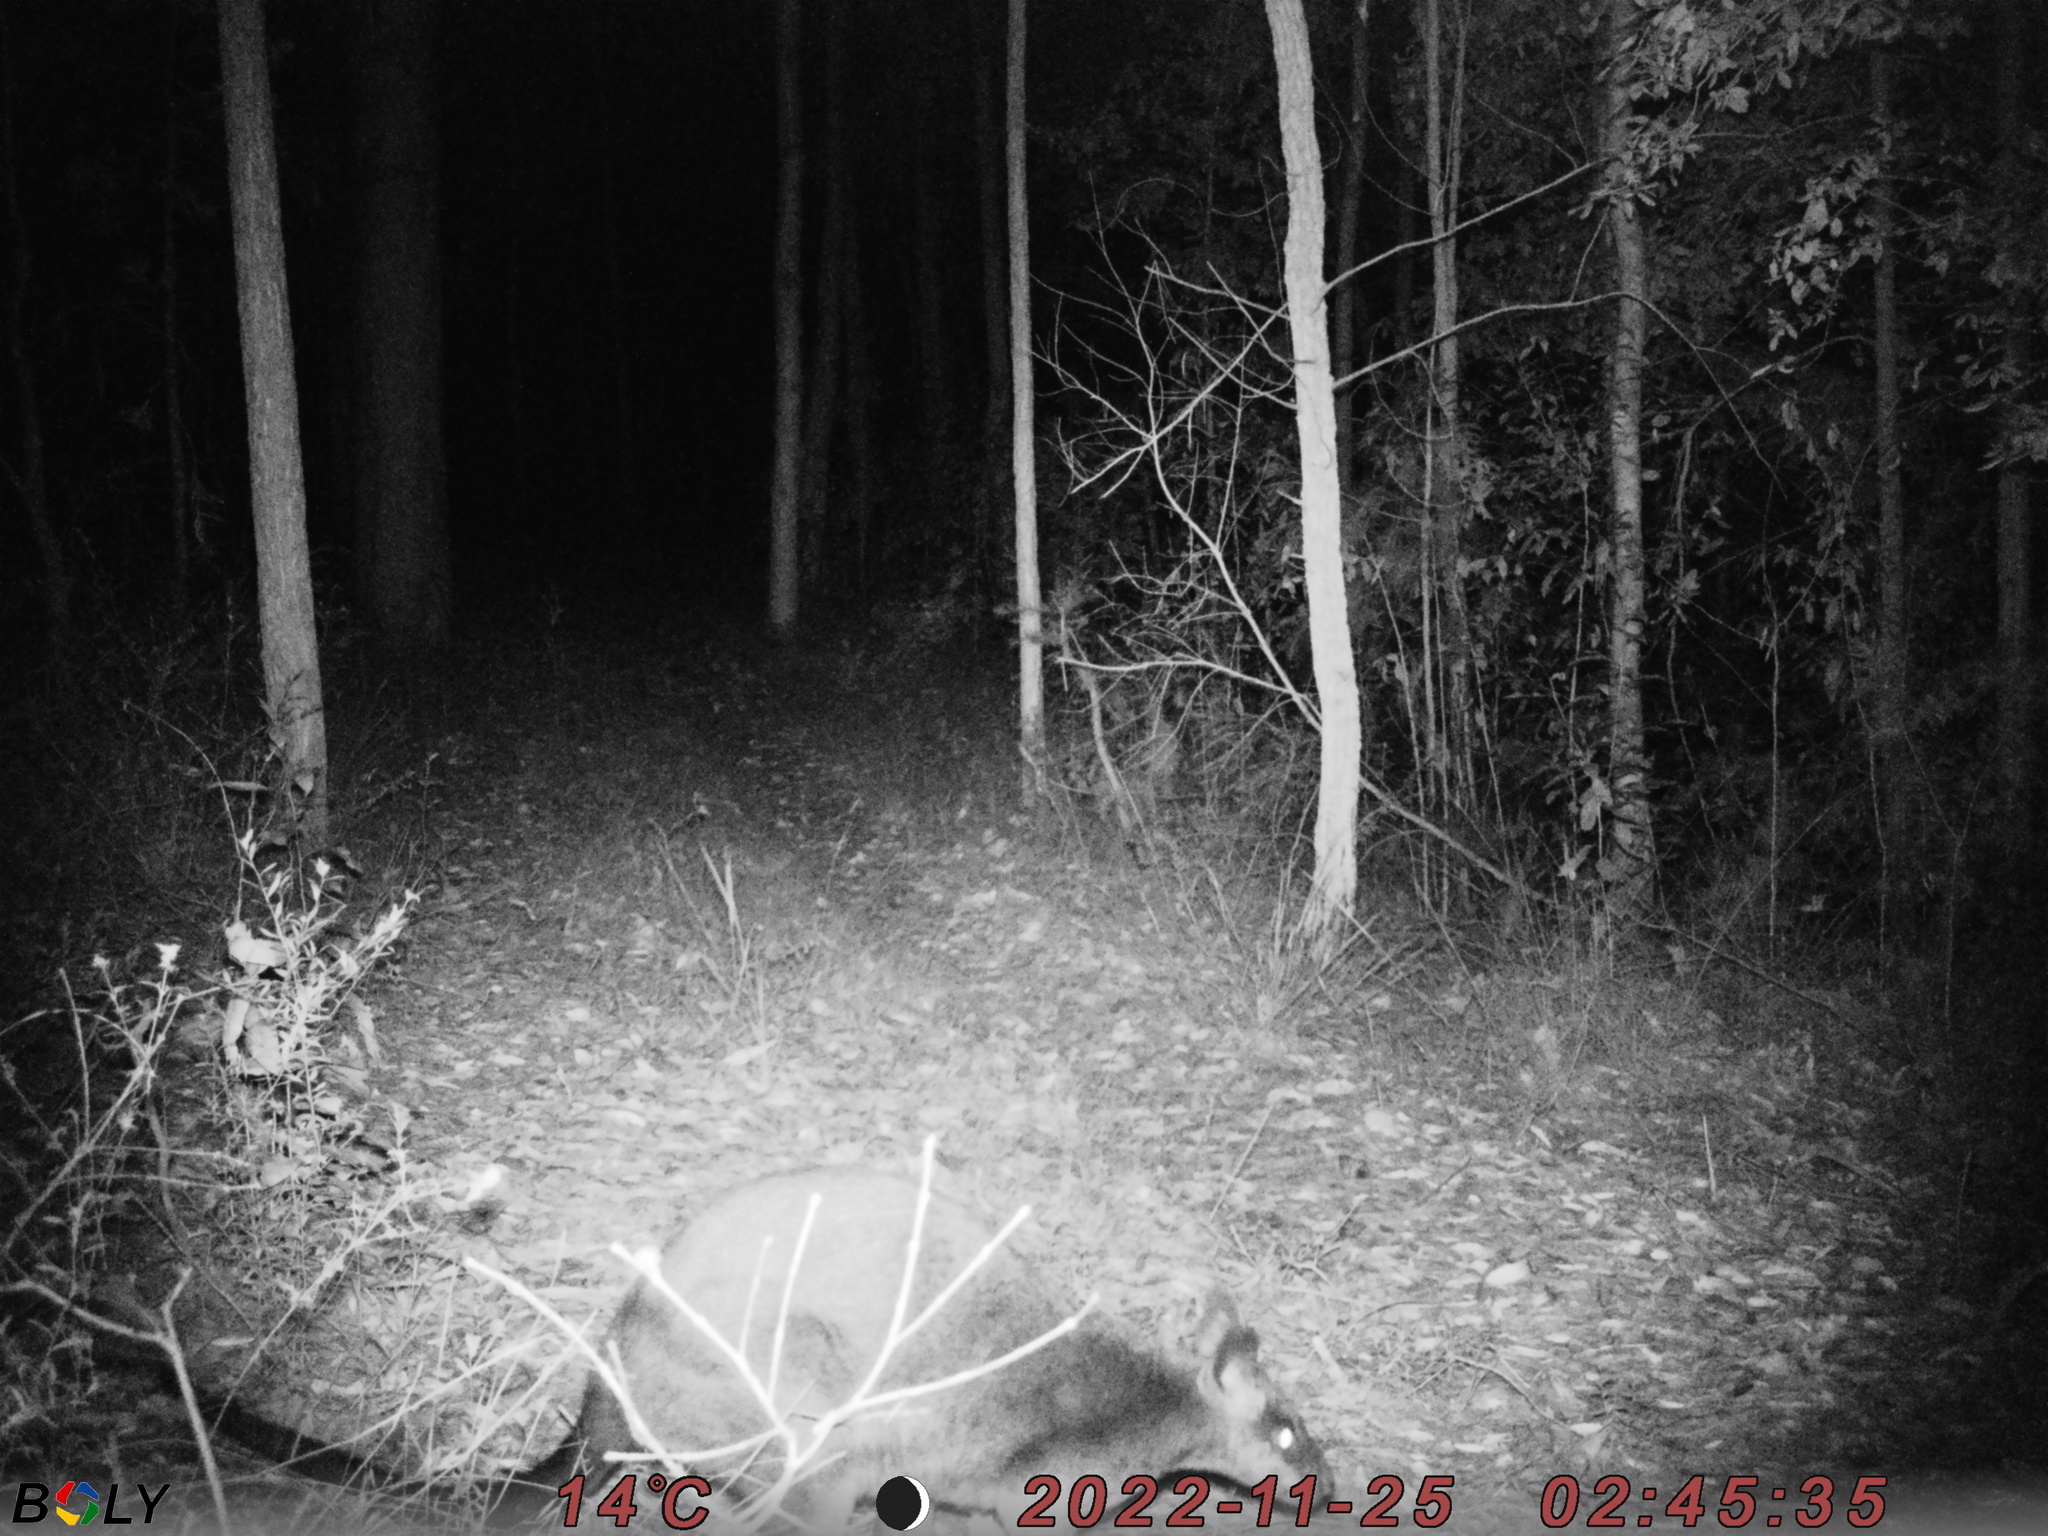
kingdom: Animalia
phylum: Chordata
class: Mammalia
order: Diprotodontia
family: Macropodidae
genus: Wallabia
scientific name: Wallabia bicolor
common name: Swamp wallaby
